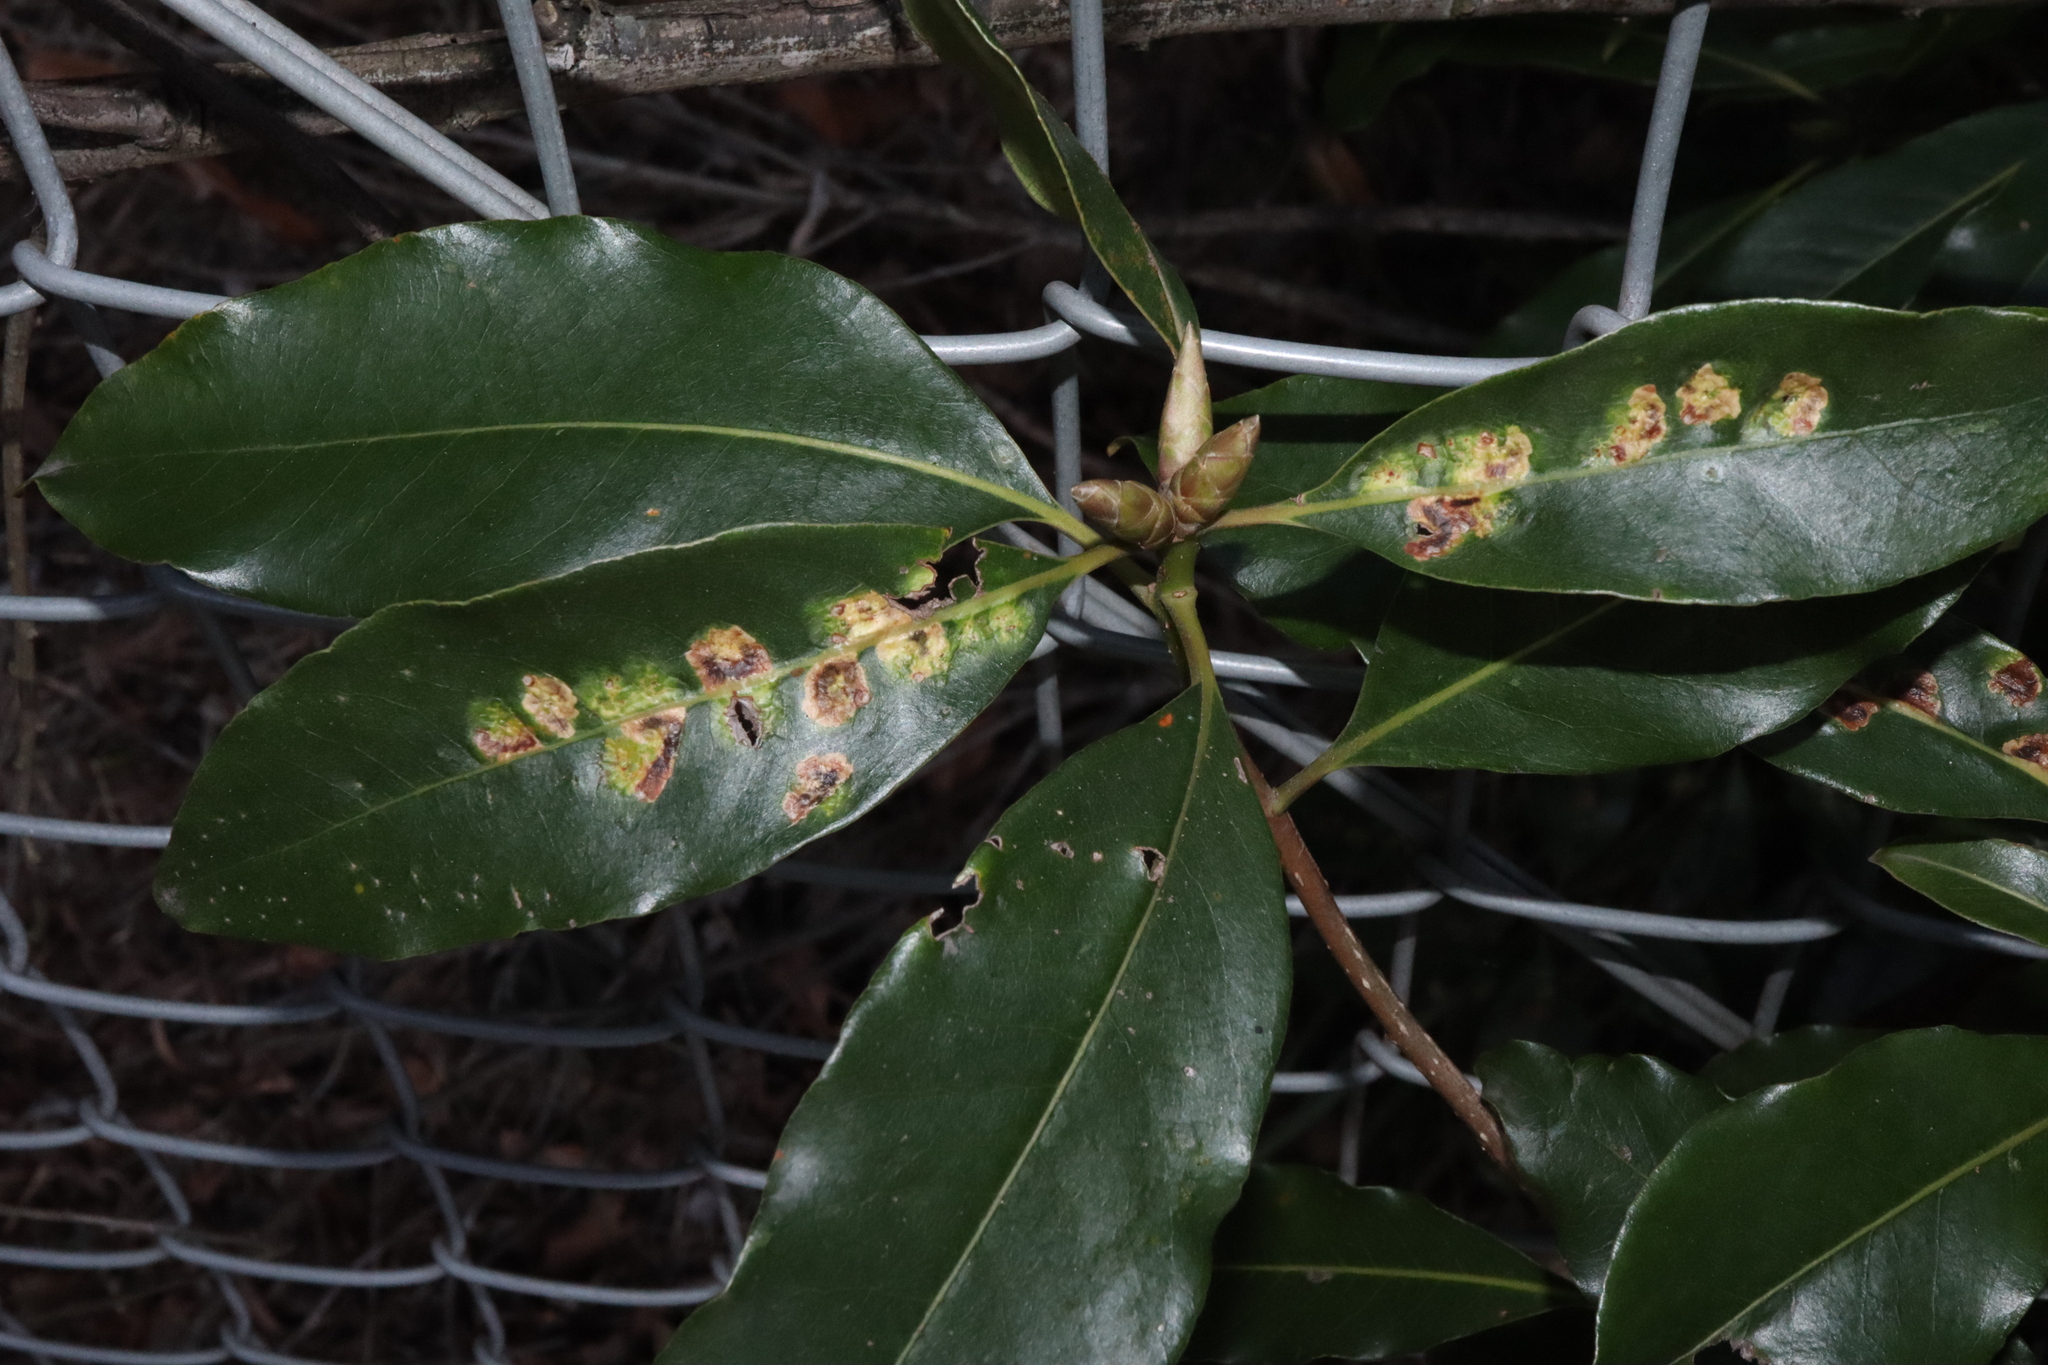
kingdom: Animalia
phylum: Arthropoda
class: Insecta
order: Diptera
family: Agromyzidae
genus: Phytoliriomyza
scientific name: Phytoliriomyza pittosporophylli
